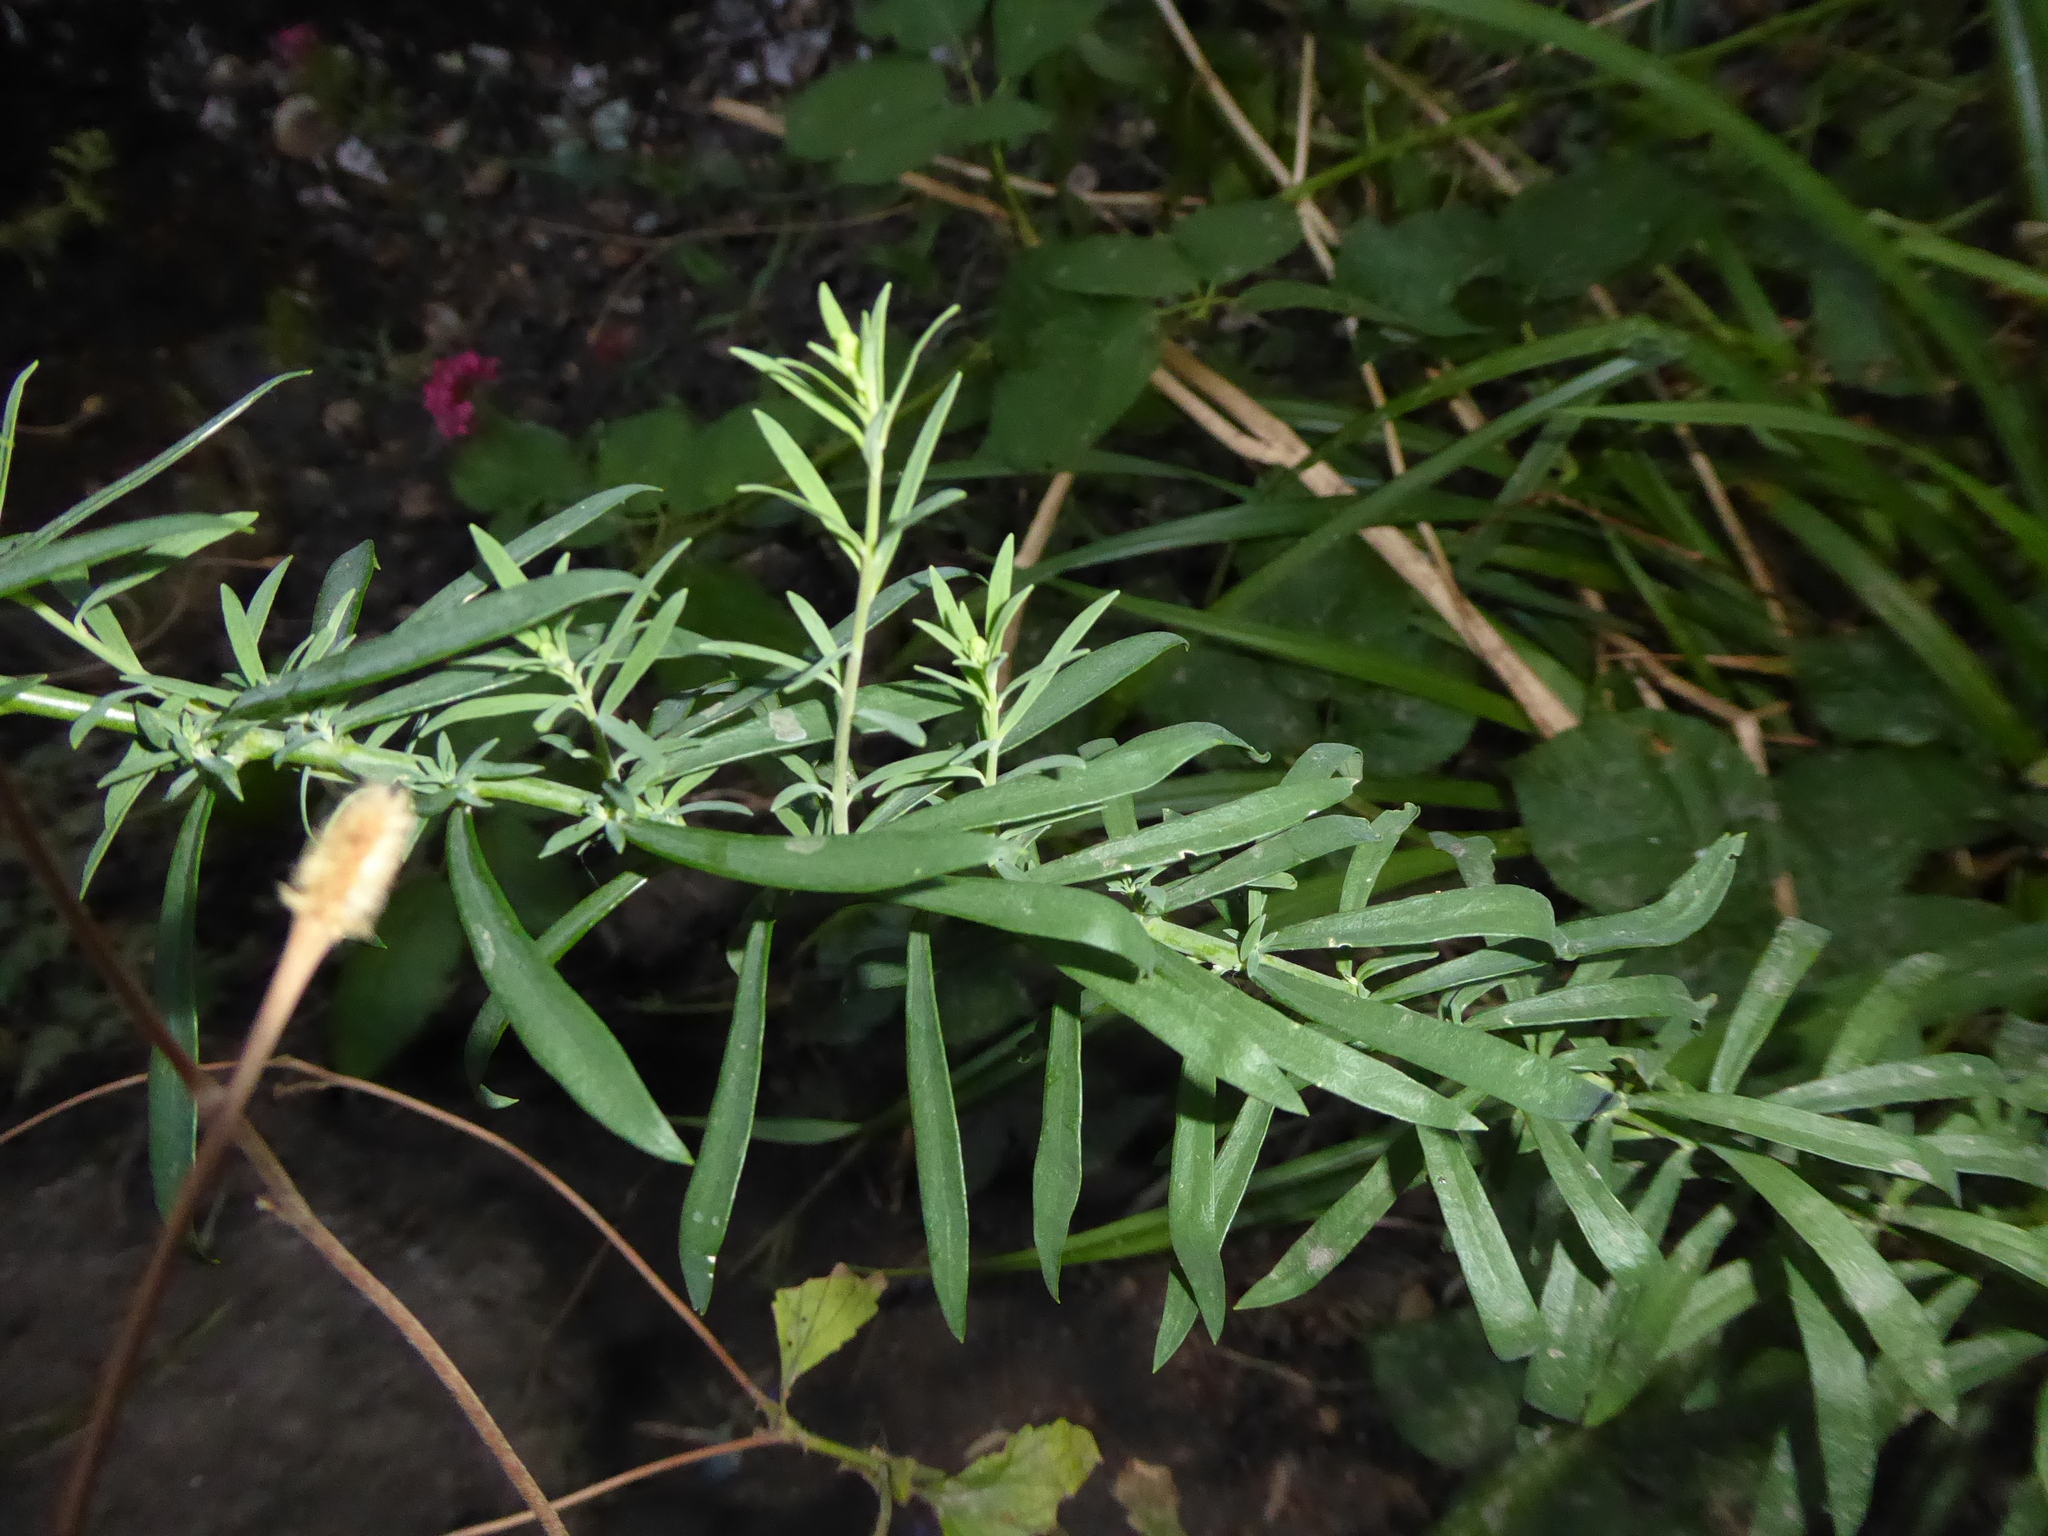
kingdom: Plantae
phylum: Tracheophyta
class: Magnoliopsida
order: Lamiales
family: Plantaginaceae
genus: Linaria
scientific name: Linaria purpurea
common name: Purple toadflax
